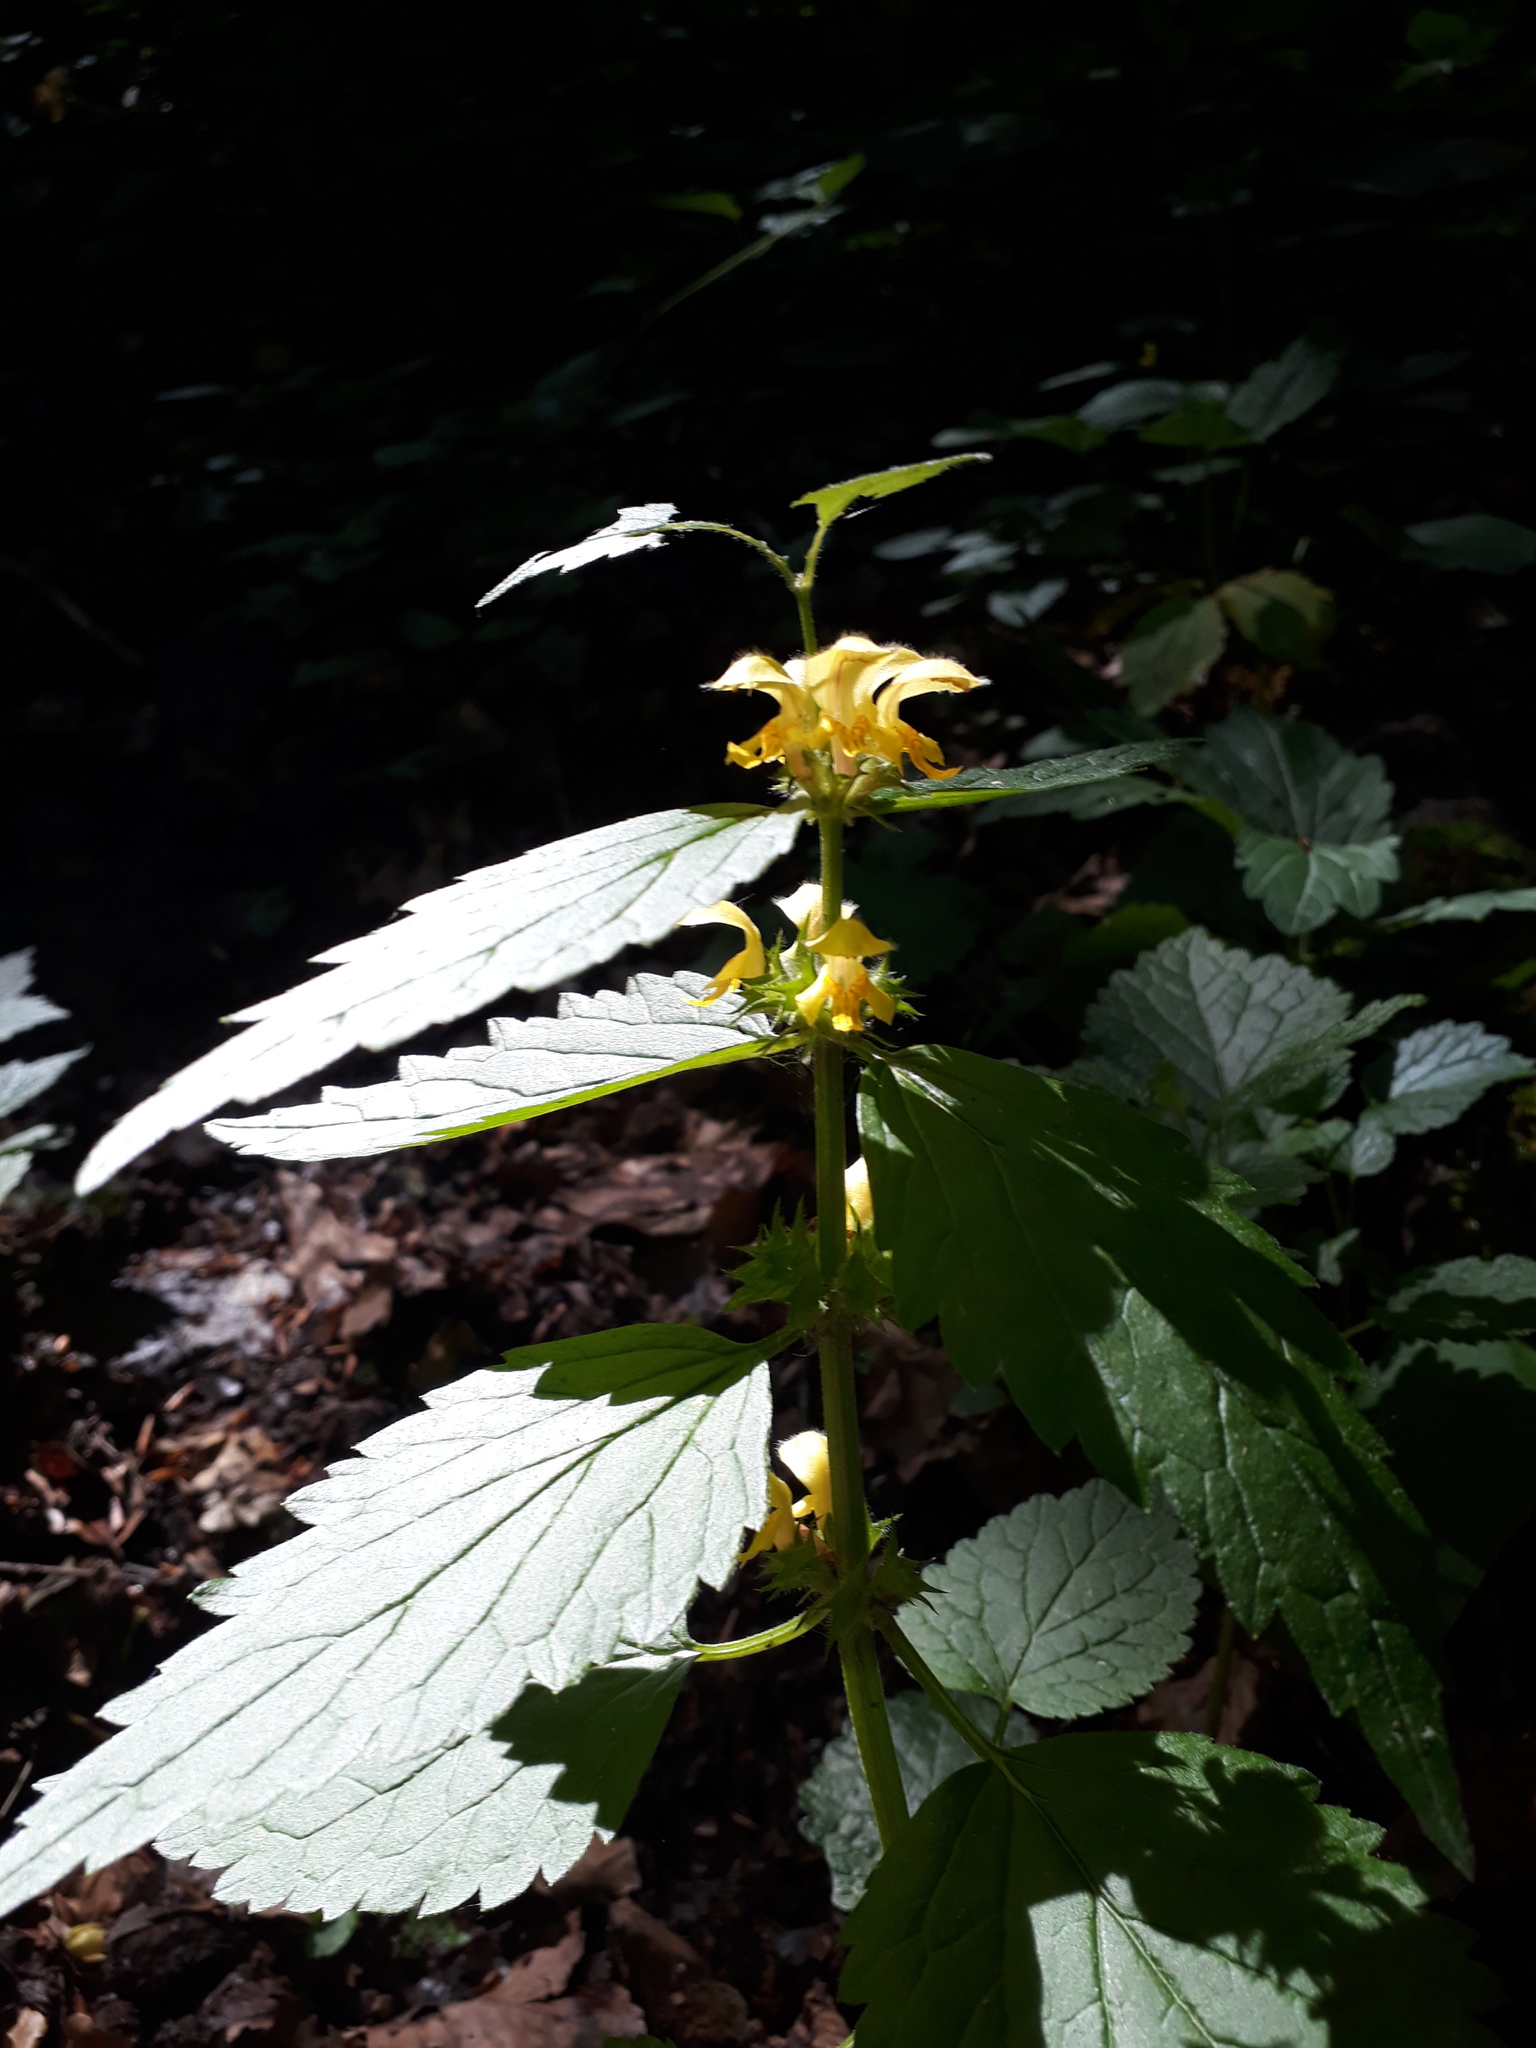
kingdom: Plantae
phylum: Tracheophyta
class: Magnoliopsida
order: Lamiales
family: Lamiaceae
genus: Lamium
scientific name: Lamium galeobdolon
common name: Yellow archangel
